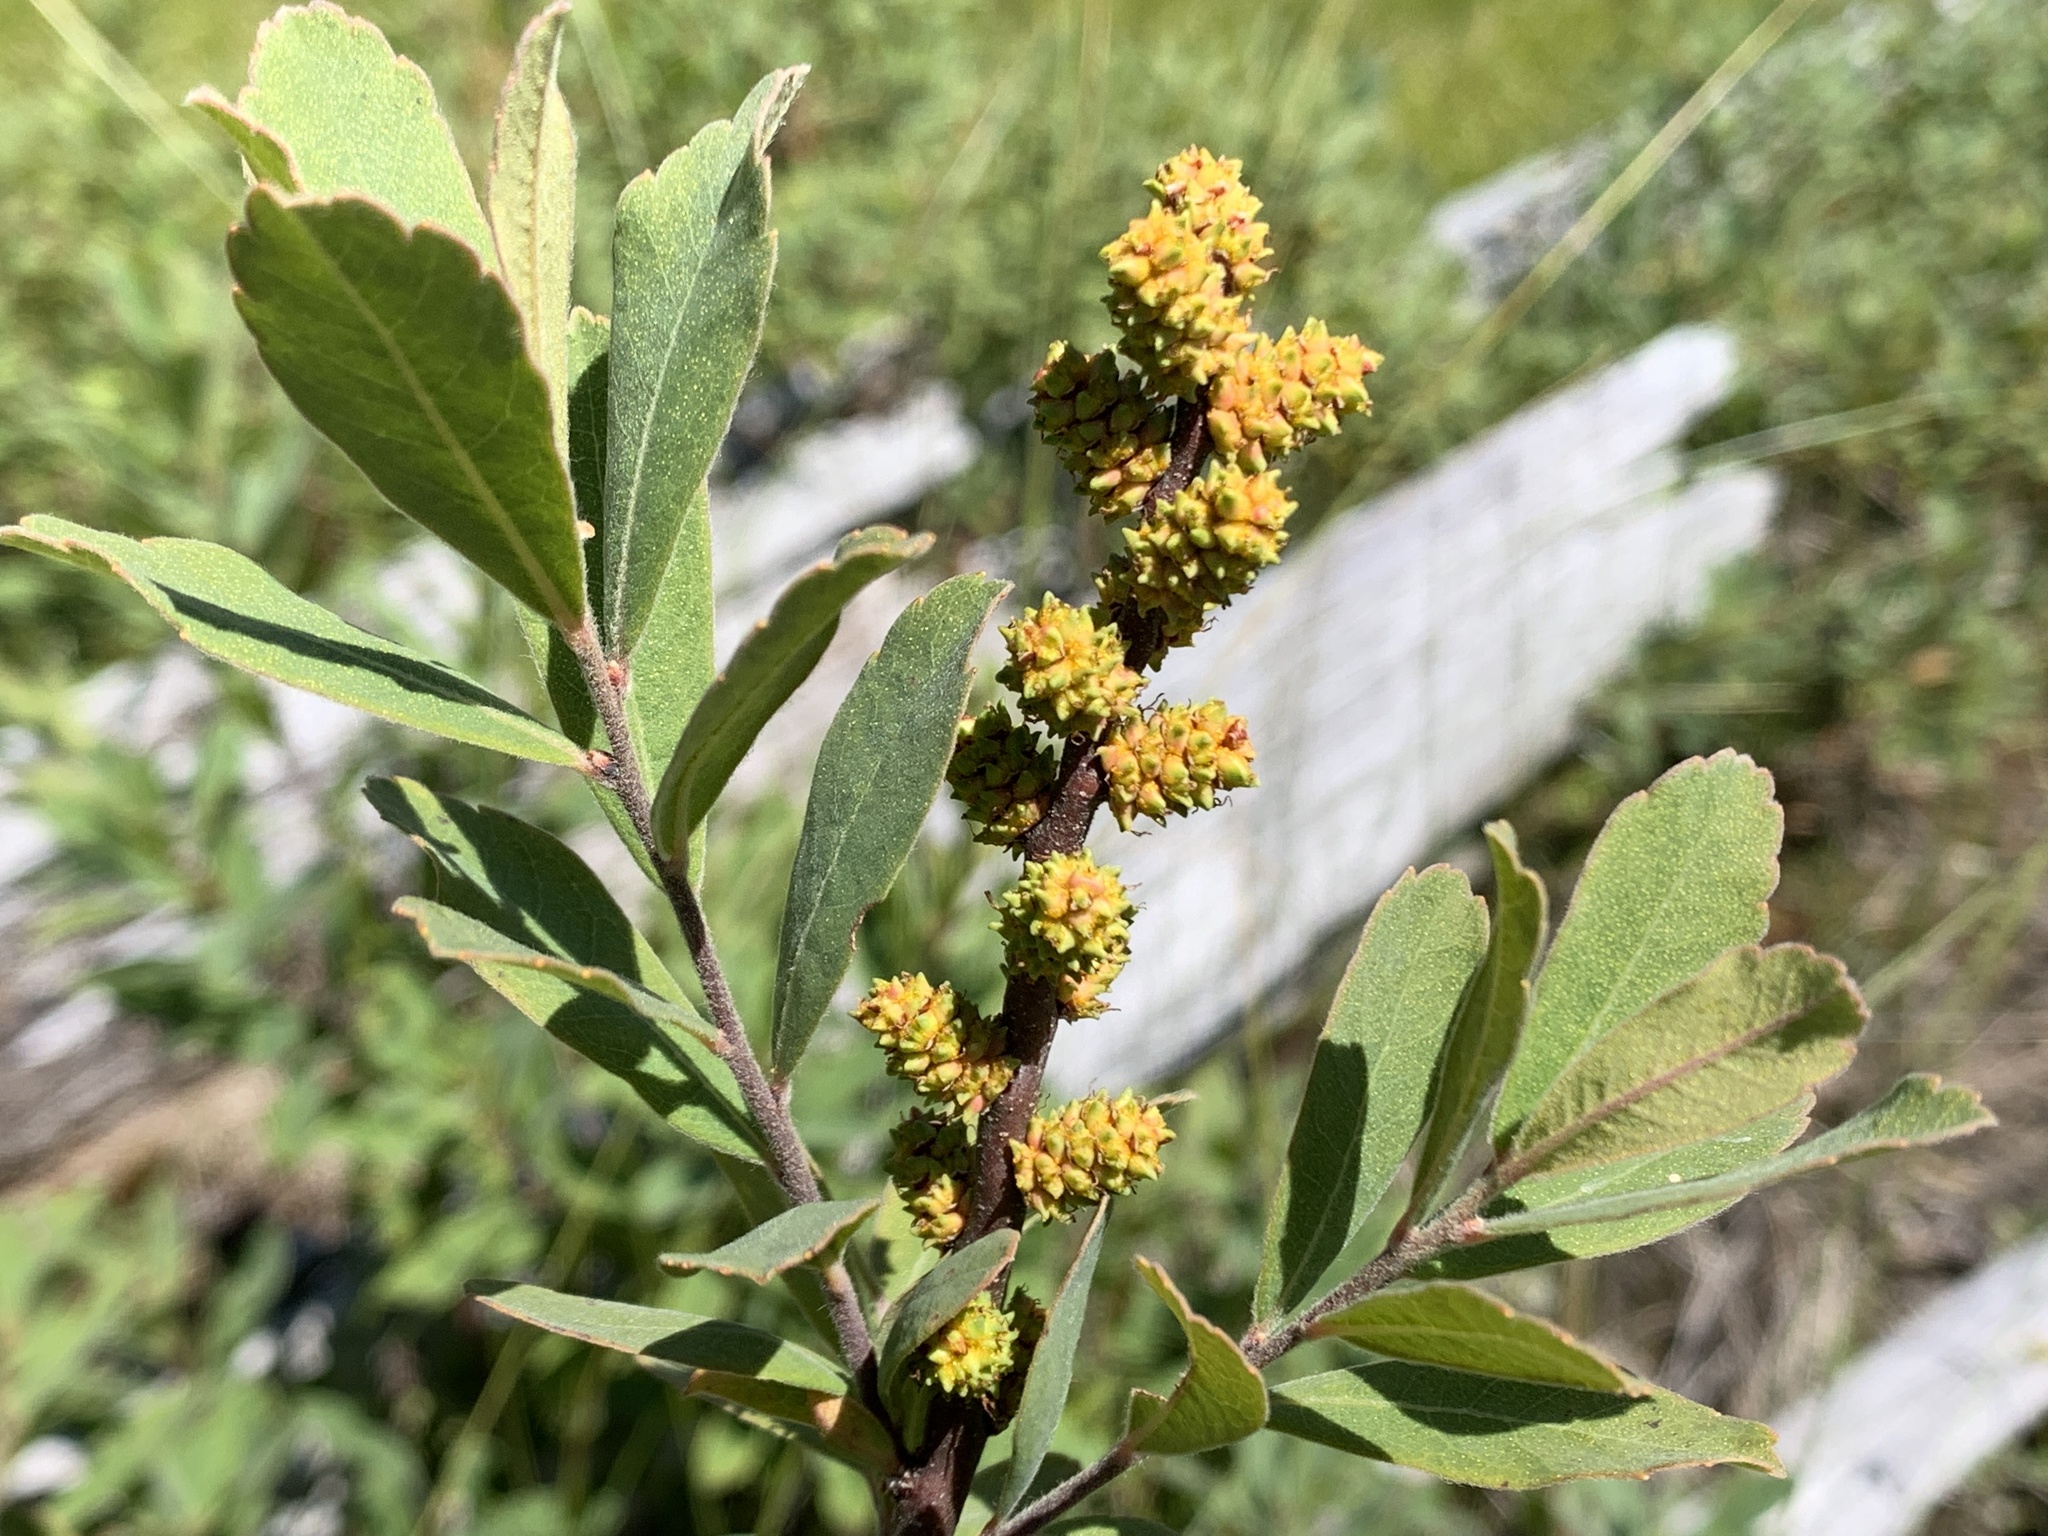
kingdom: Plantae
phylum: Tracheophyta
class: Magnoliopsida
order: Fagales
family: Myricaceae
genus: Myrica
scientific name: Myrica gale
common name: Sweet gale
